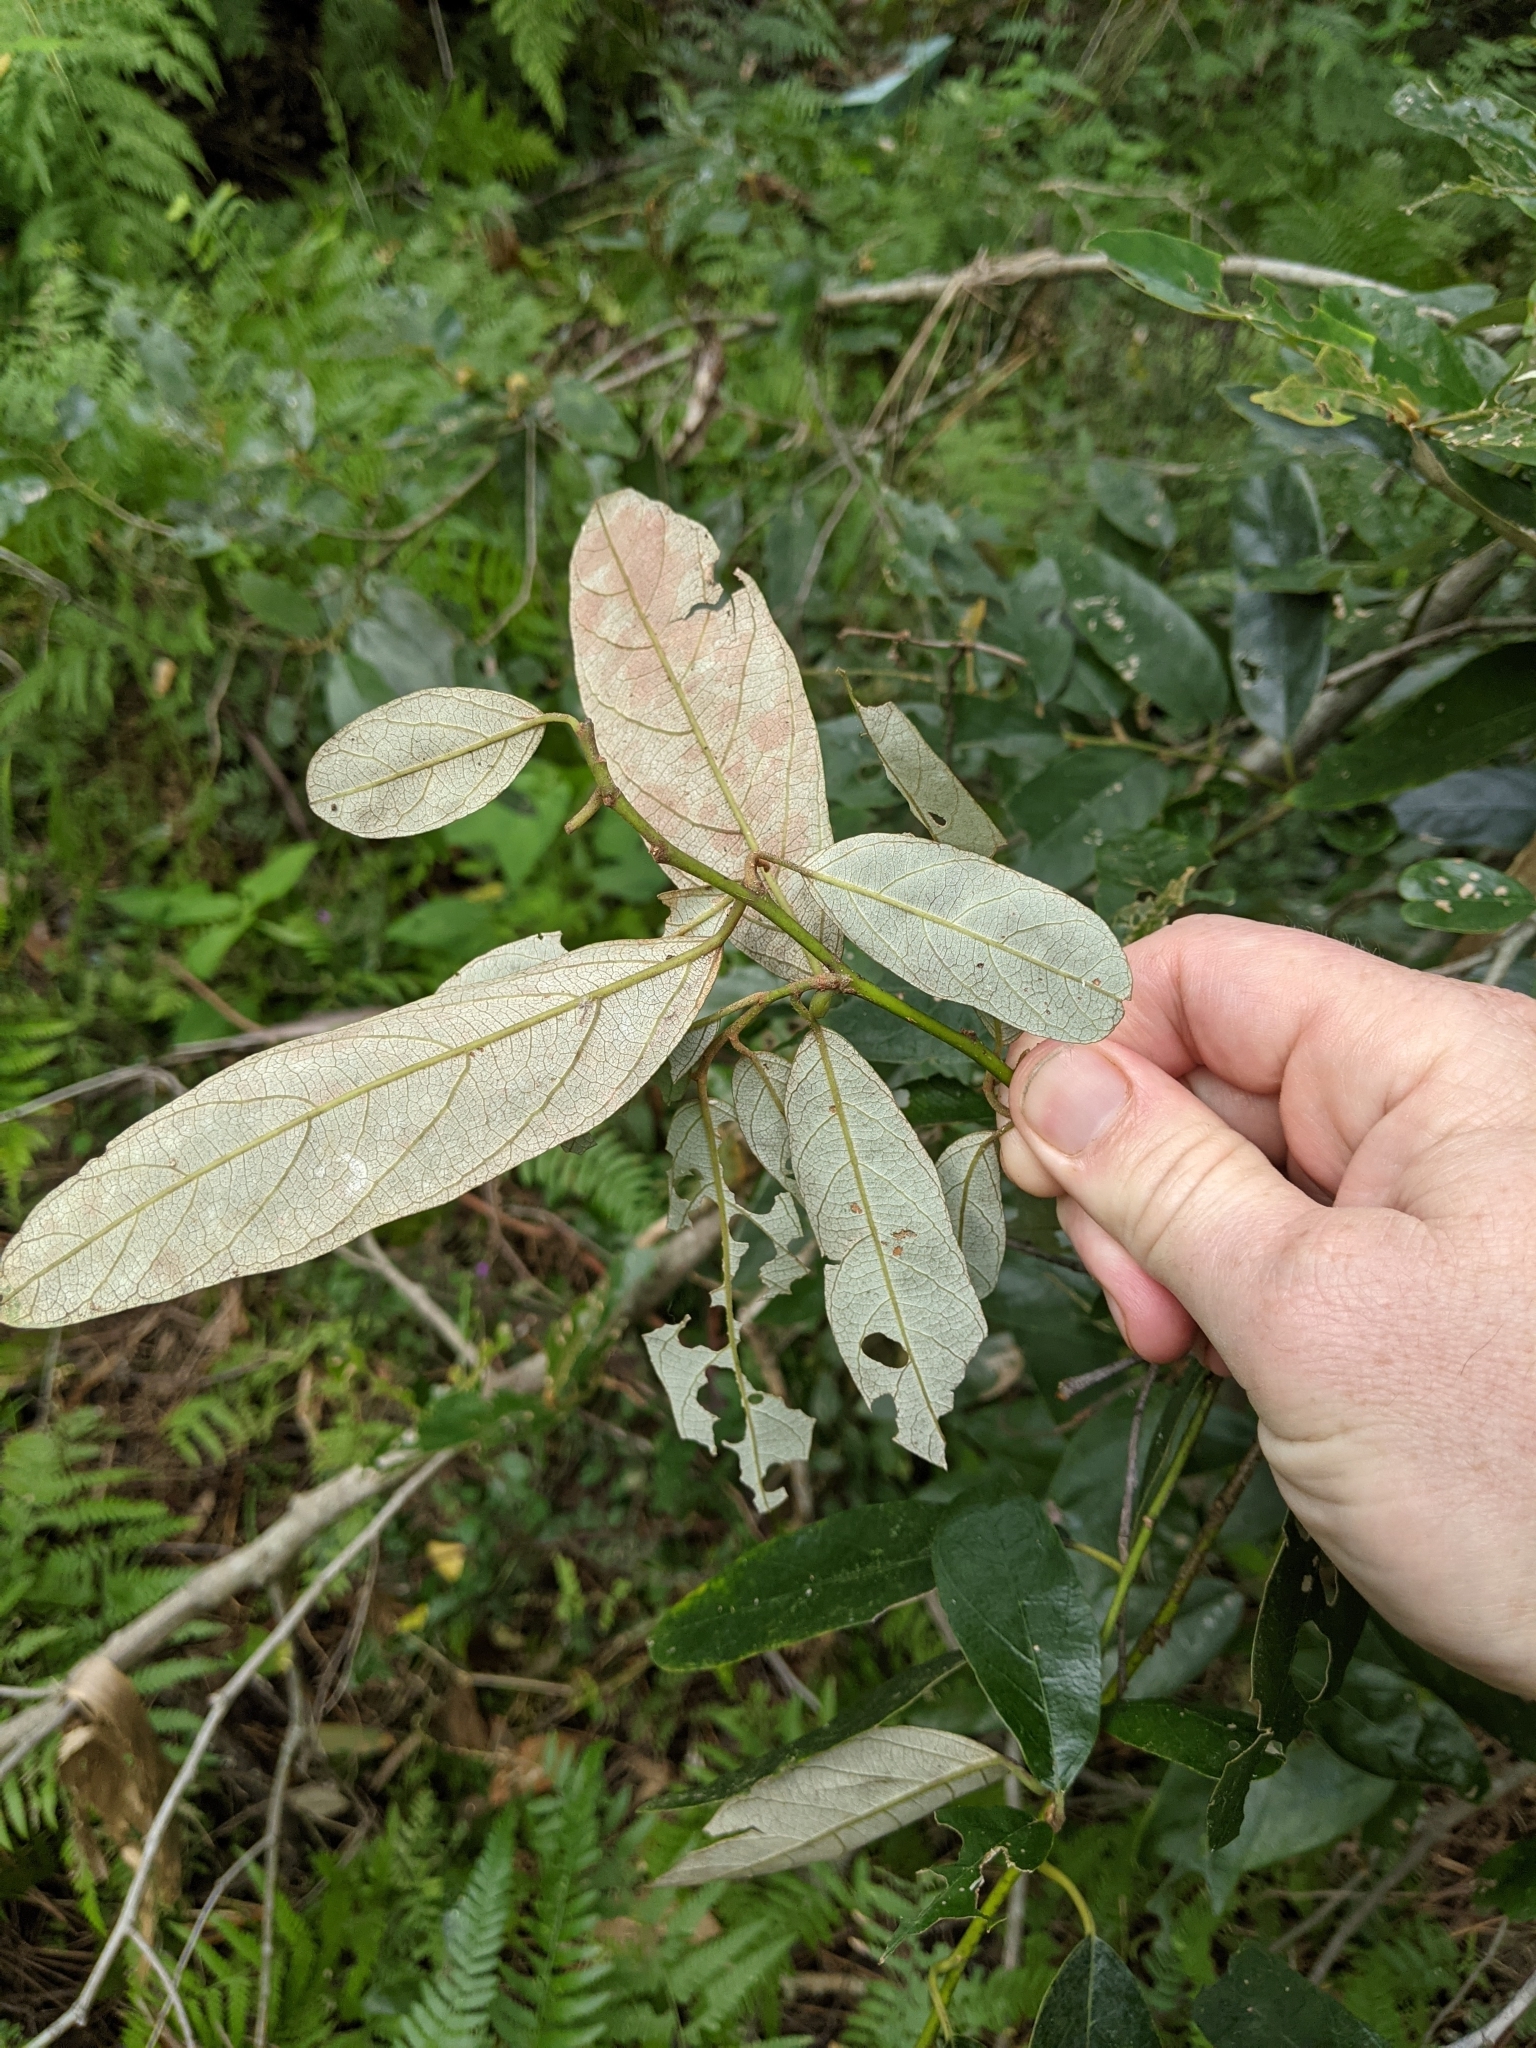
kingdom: Plantae
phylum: Tracheophyta
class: Magnoliopsida
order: Rosales
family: Rhamnaceae
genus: Alphitonia
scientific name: Alphitonia excelsa
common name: Red ash
